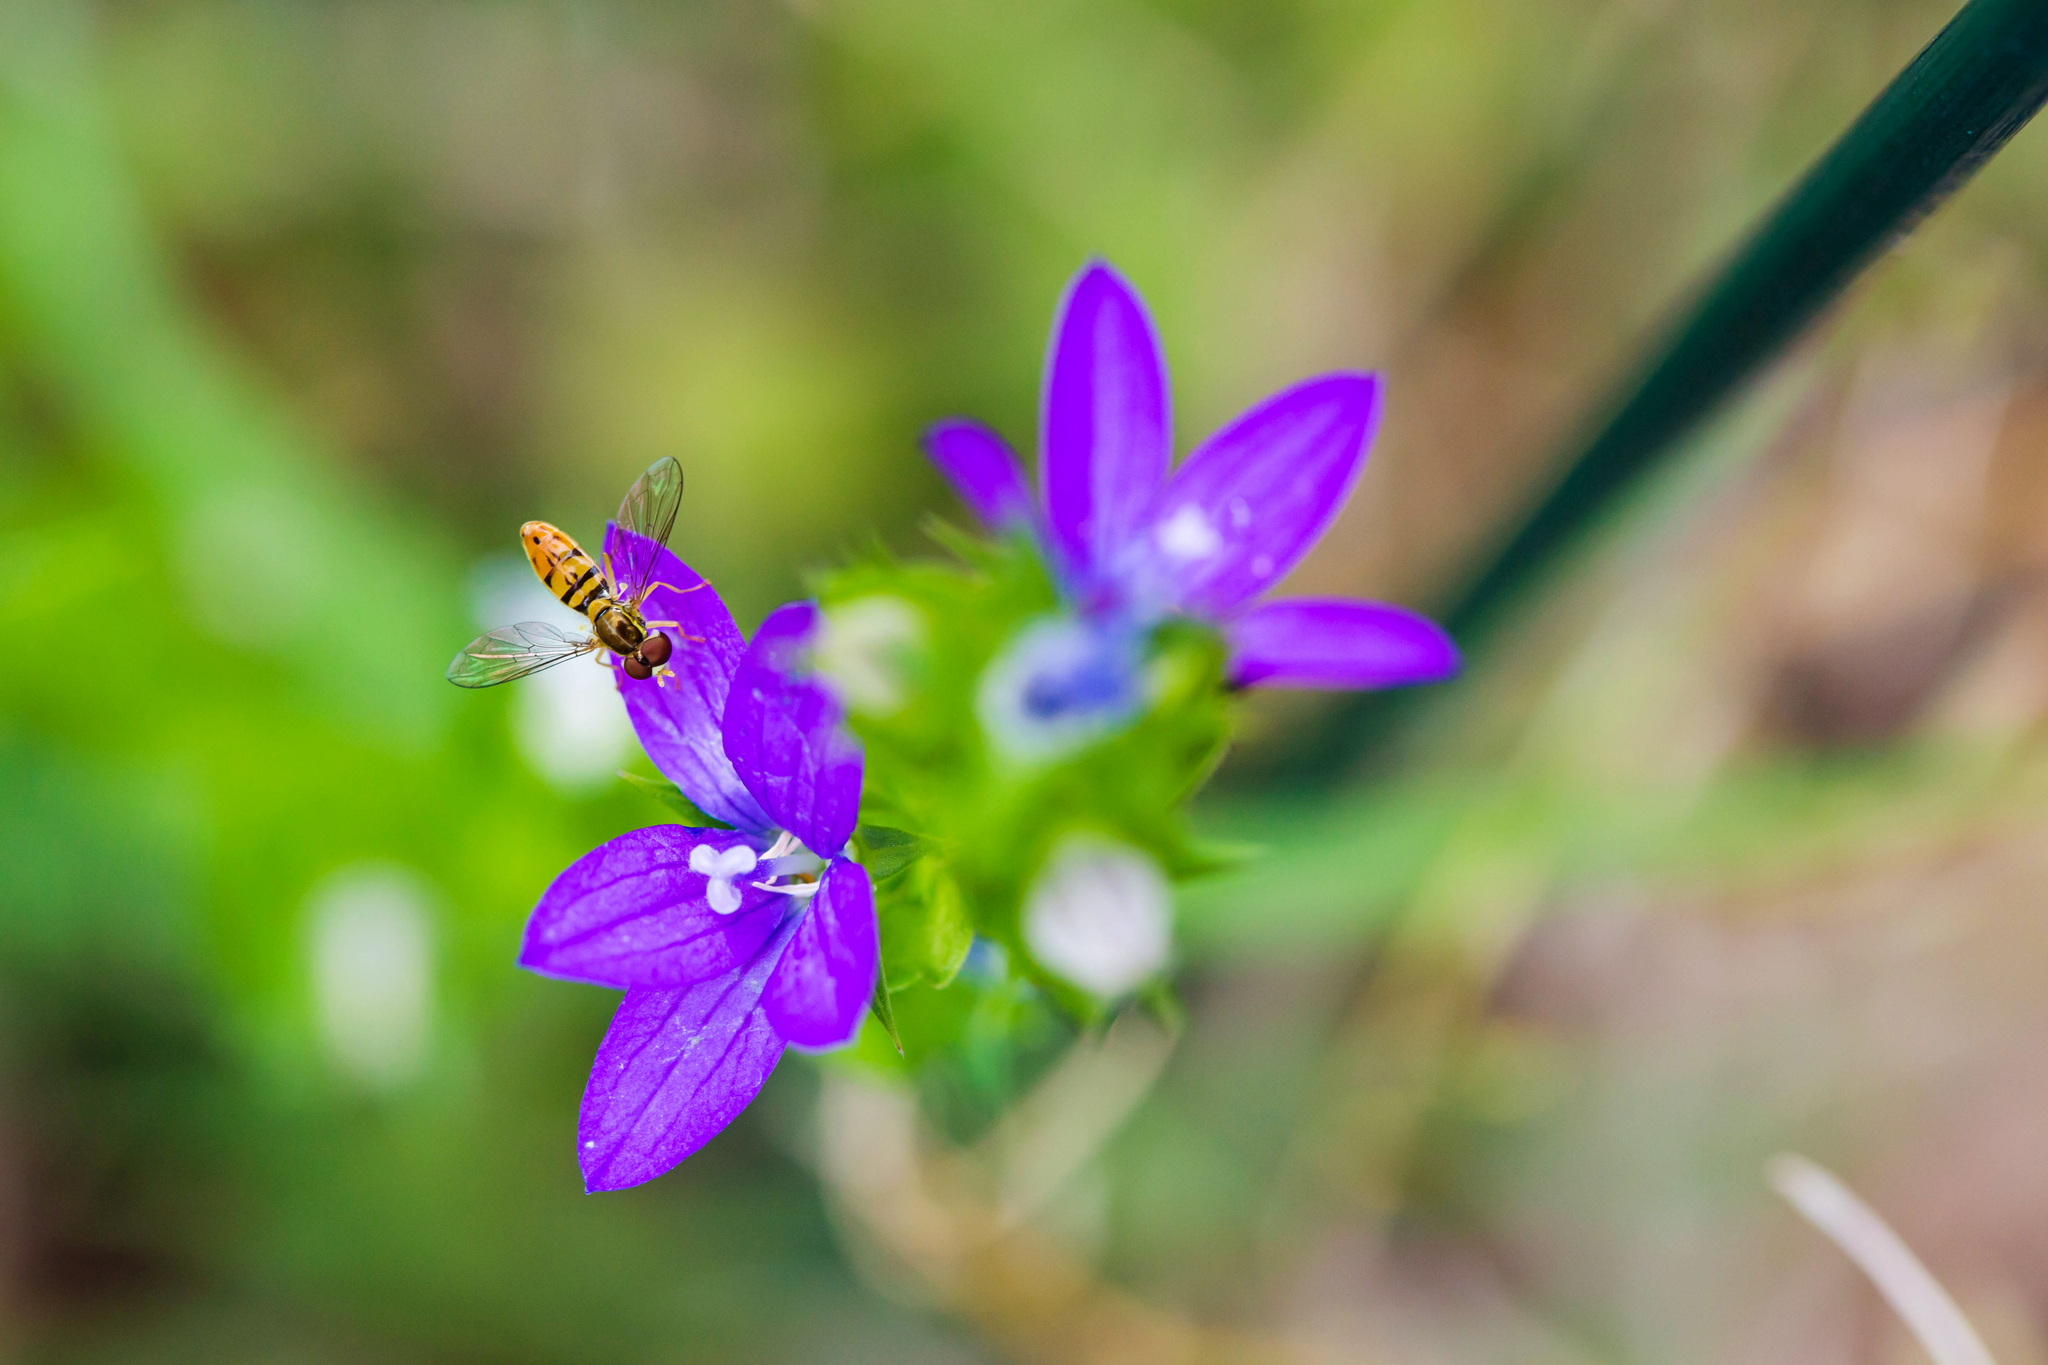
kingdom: Plantae
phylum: Tracheophyta
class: Magnoliopsida
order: Asterales
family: Campanulaceae
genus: Triodanis
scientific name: Triodanis perfoliata
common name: Clasping venus' looking-glass
